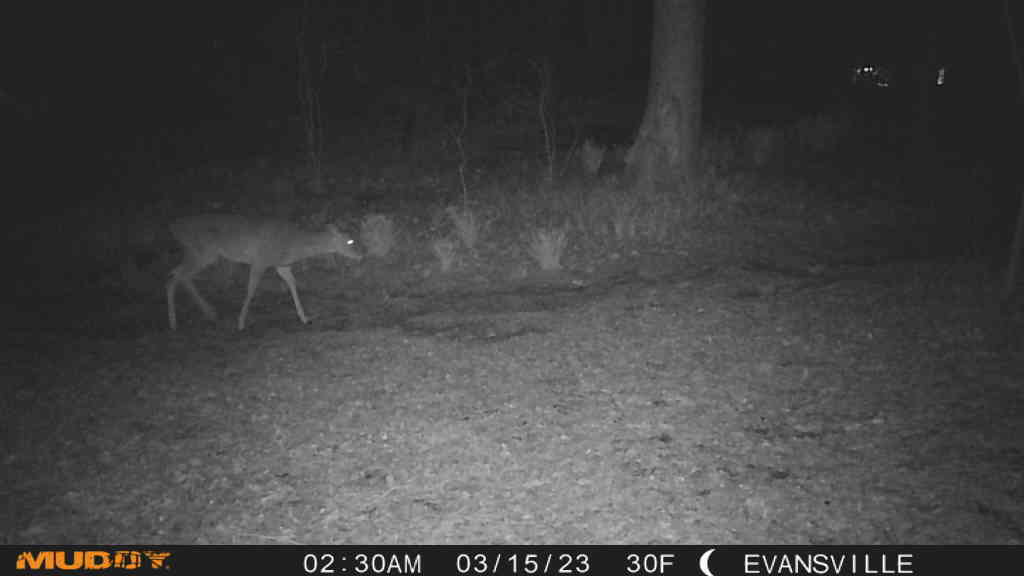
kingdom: Animalia
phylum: Chordata
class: Mammalia
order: Artiodactyla
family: Cervidae
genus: Odocoileus
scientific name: Odocoileus virginianus
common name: White-tailed deer
